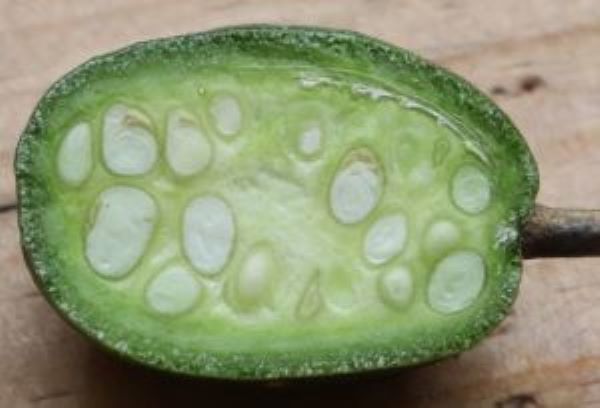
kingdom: Plantae
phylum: Tracheophyta
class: Magnoliopsida
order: Brassicales
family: Capparaceae
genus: Maerua
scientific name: Maerua cafra
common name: Bush maerua
